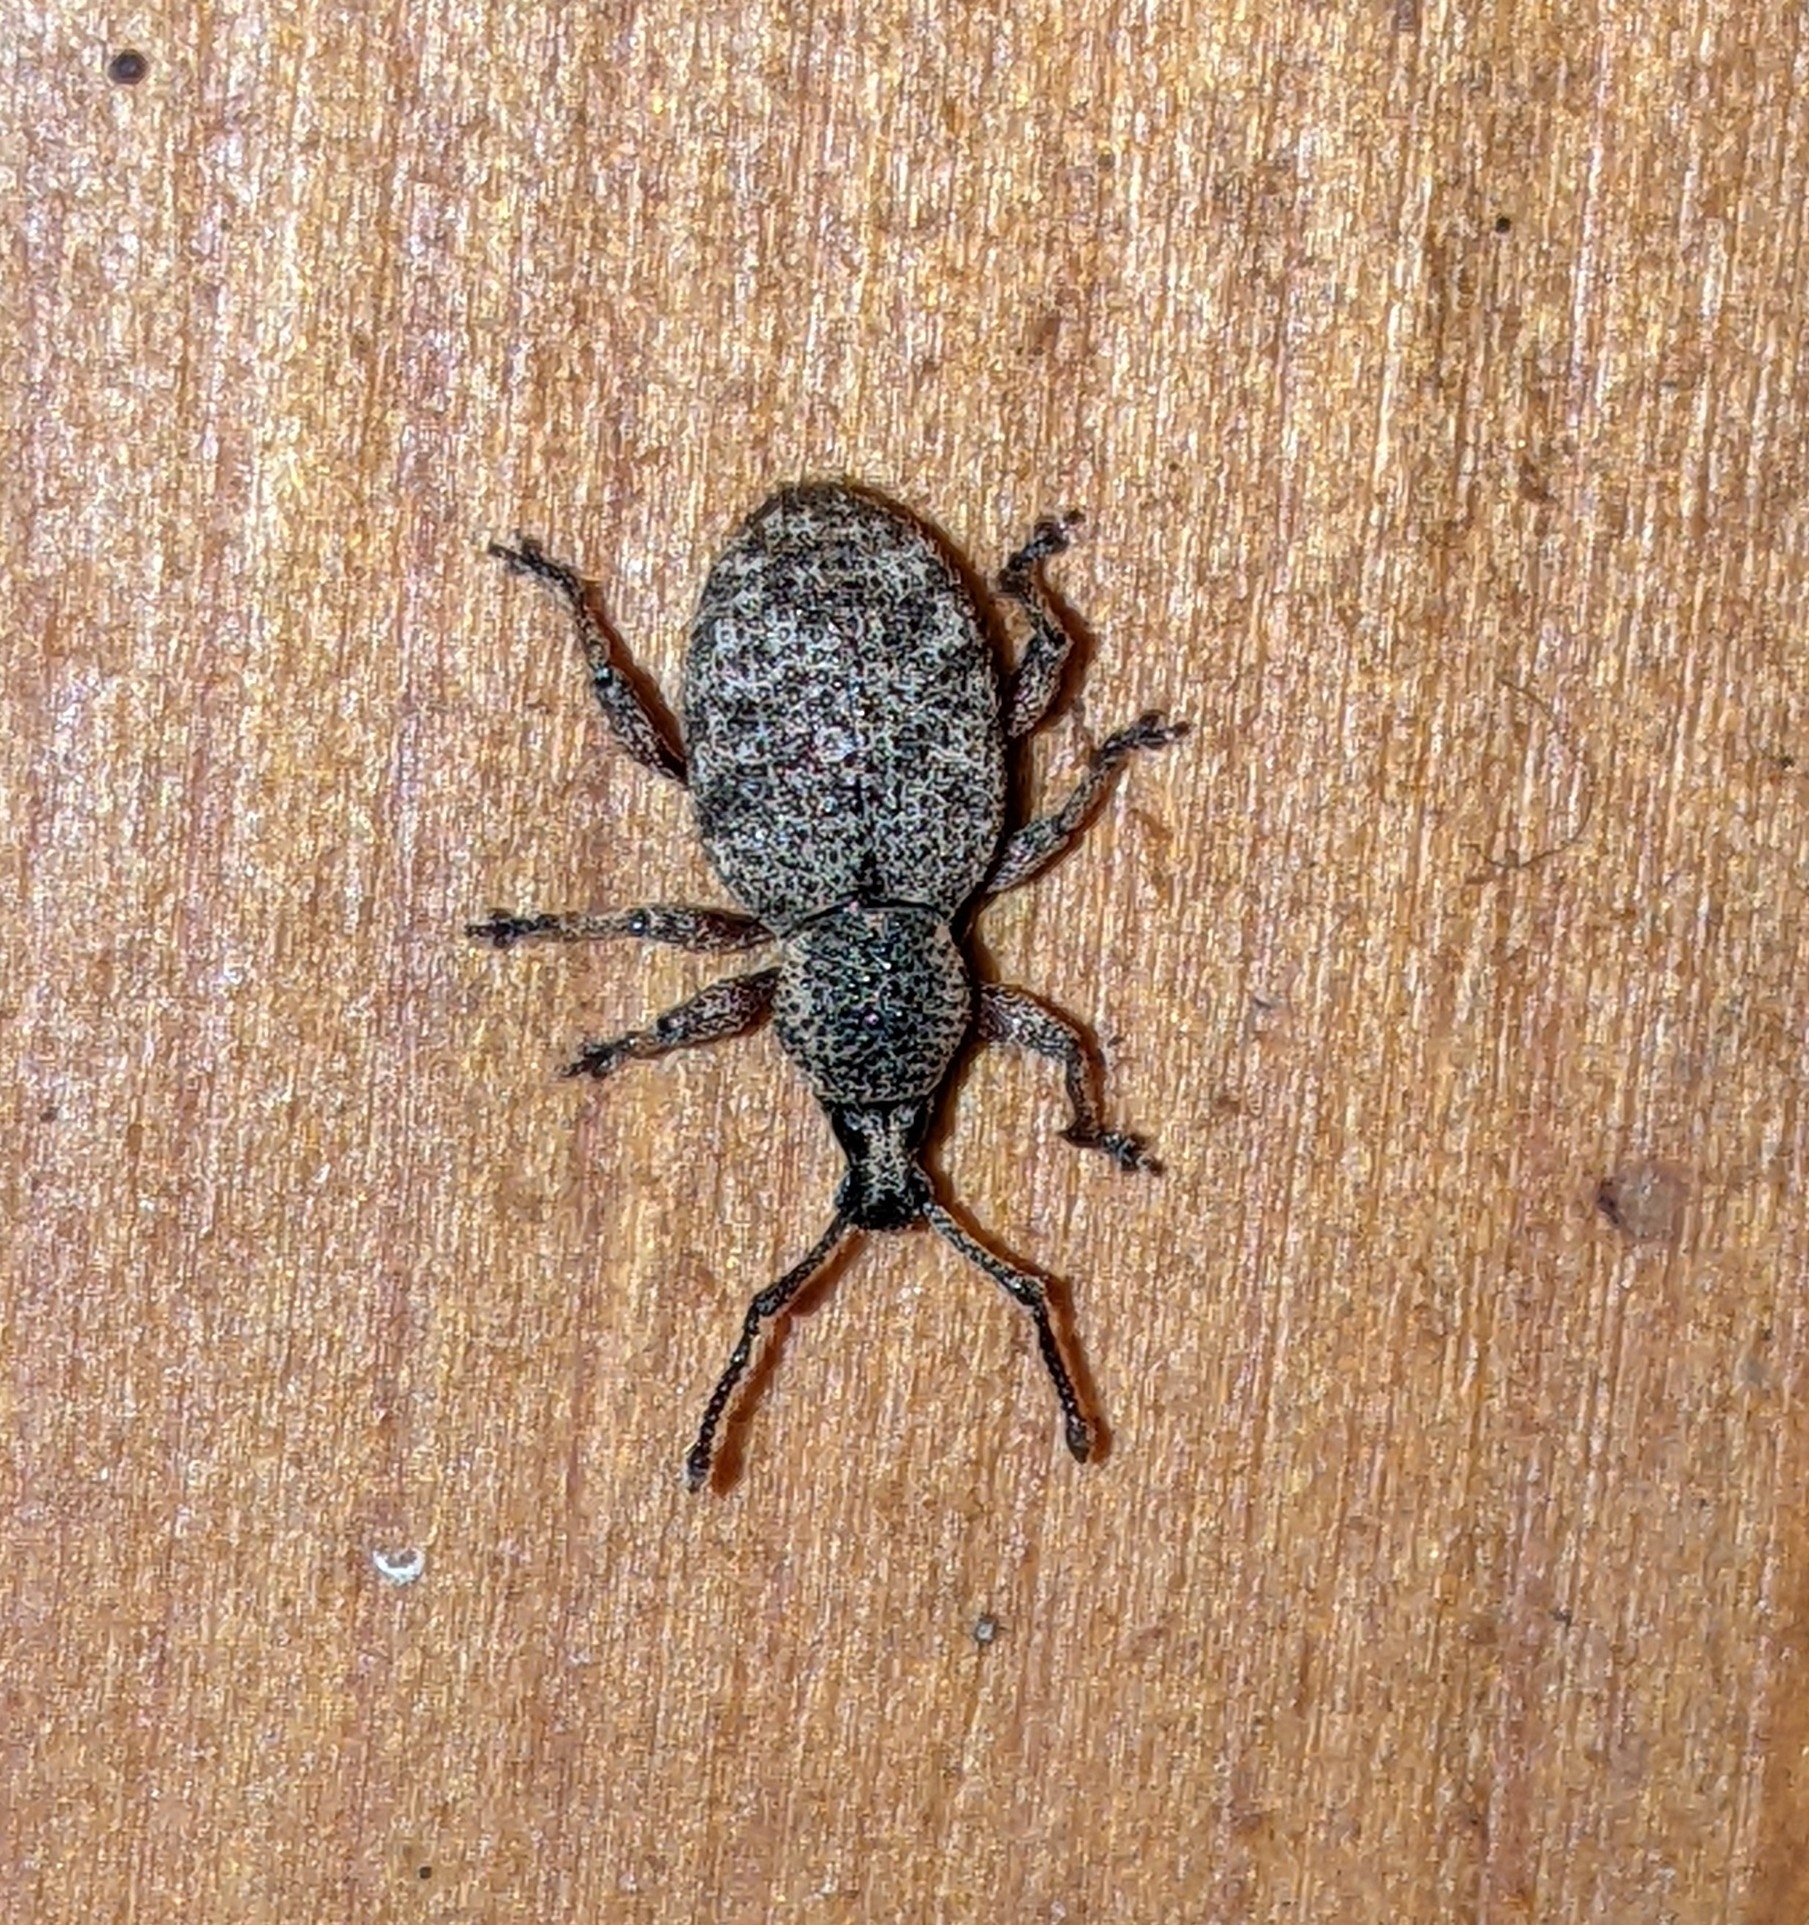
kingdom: Animalia
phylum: Arthropoda
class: Insecta
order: Coleoptera
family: Curculionidae
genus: Otiorhynchus
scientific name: Otiorhynchus singularis
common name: Clay-coloured weevil
